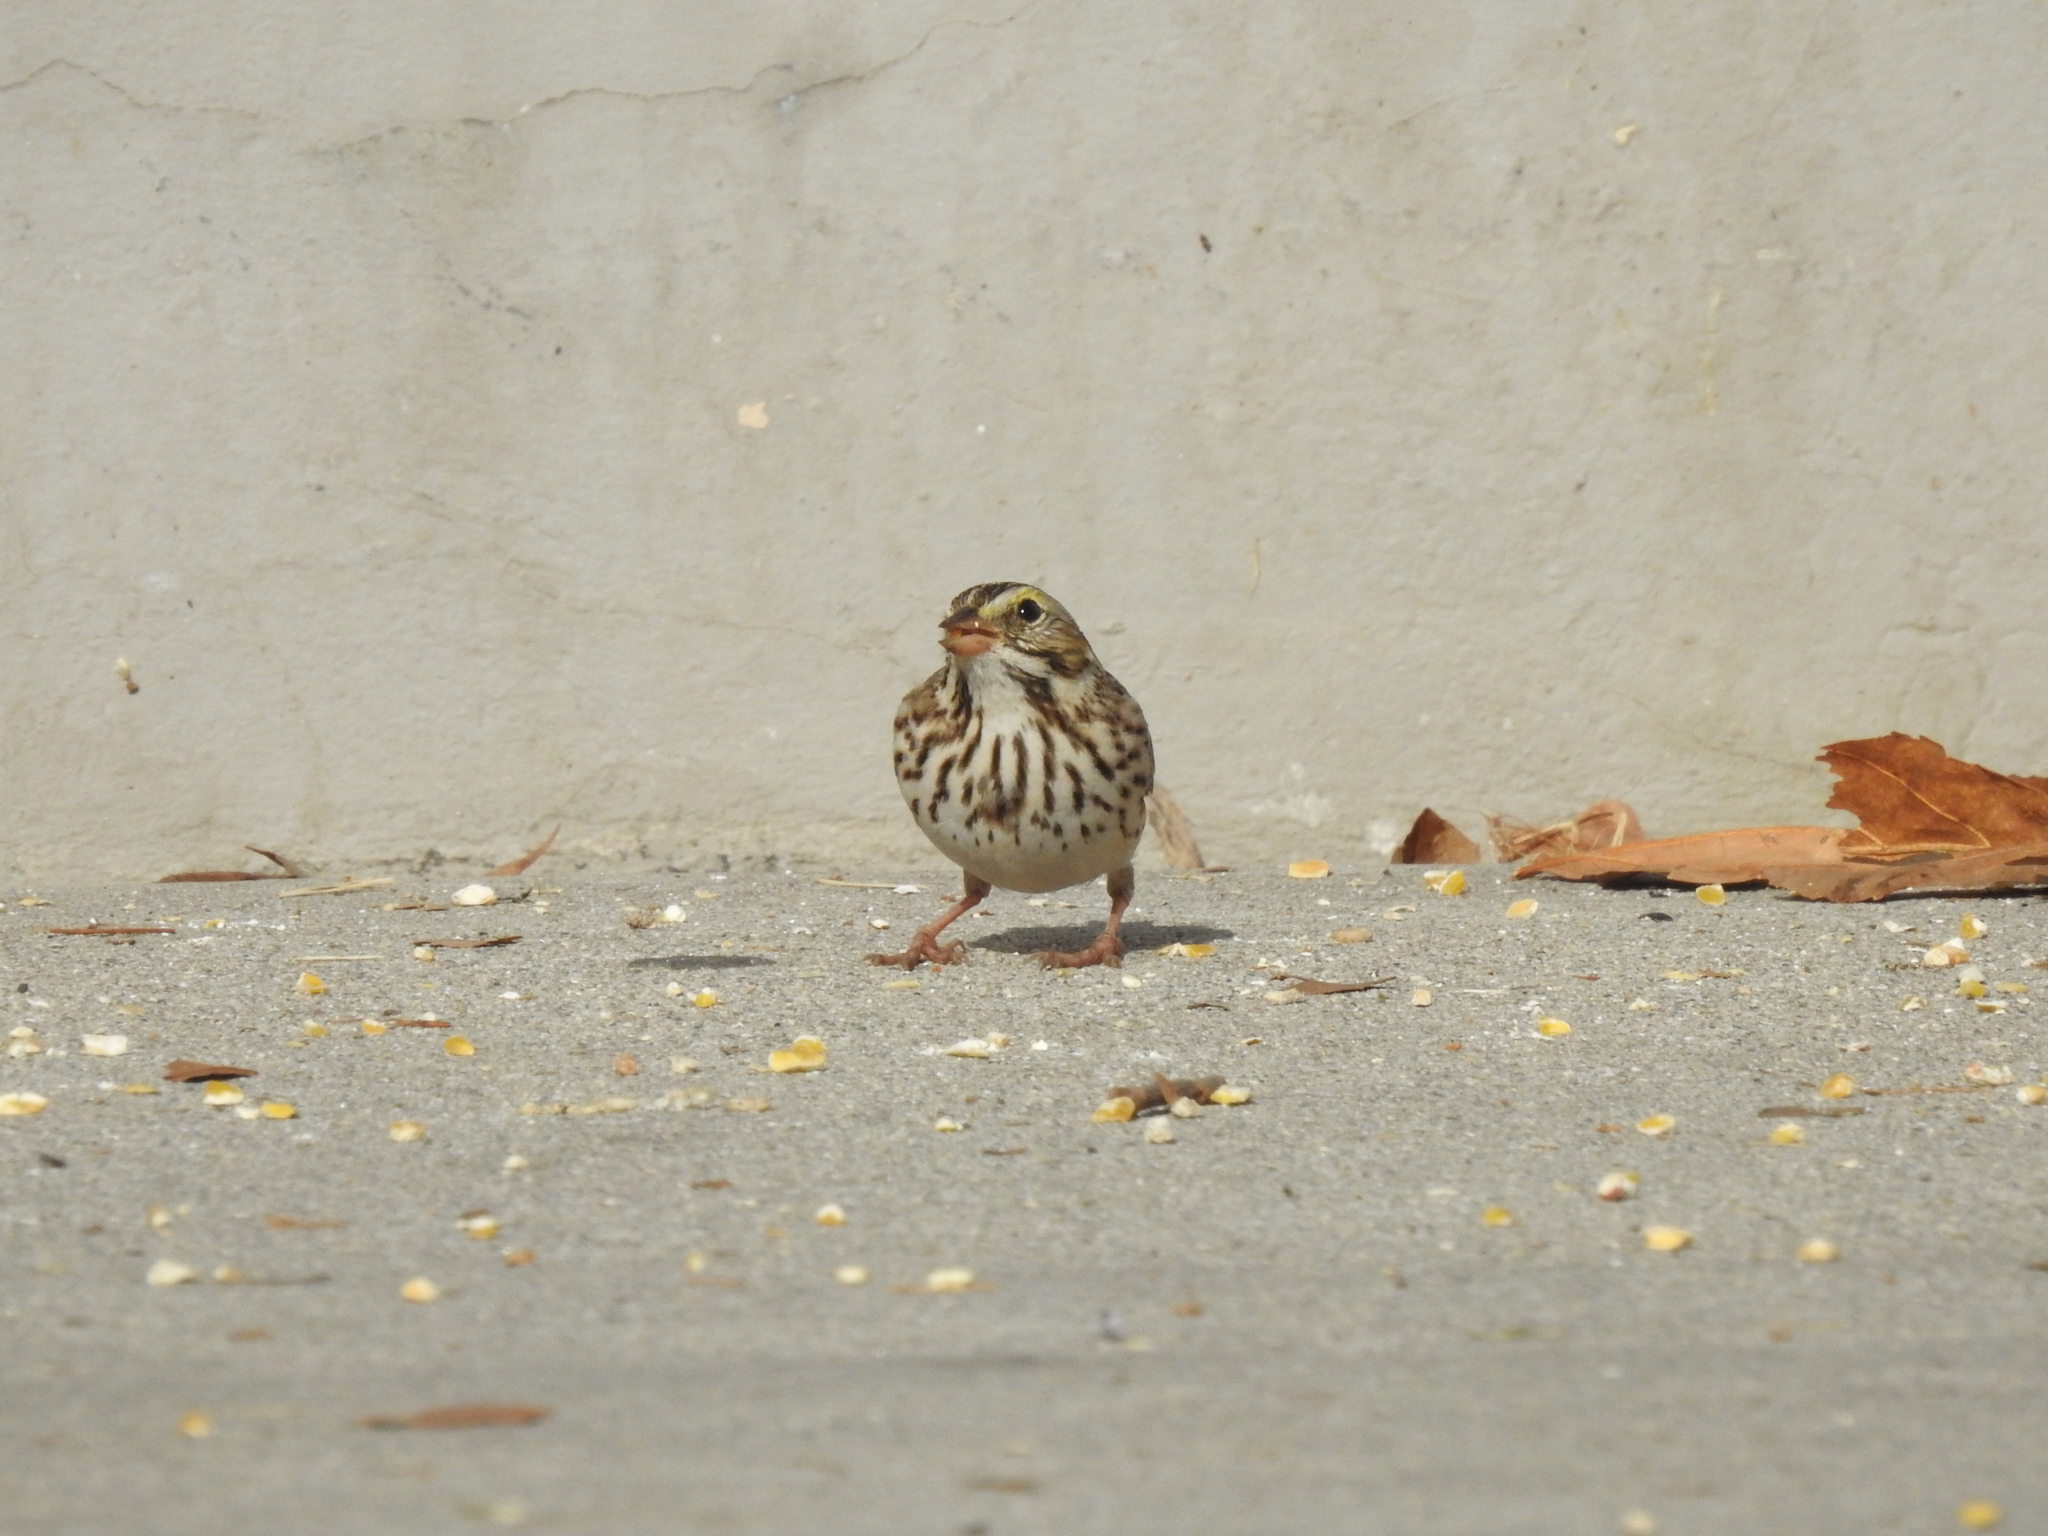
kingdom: Animalia
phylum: Chordata
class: Aves
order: Passeriformes
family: Passerellidae
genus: Passerculus
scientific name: Passerculus sandwichensis
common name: Savannah sparrow
